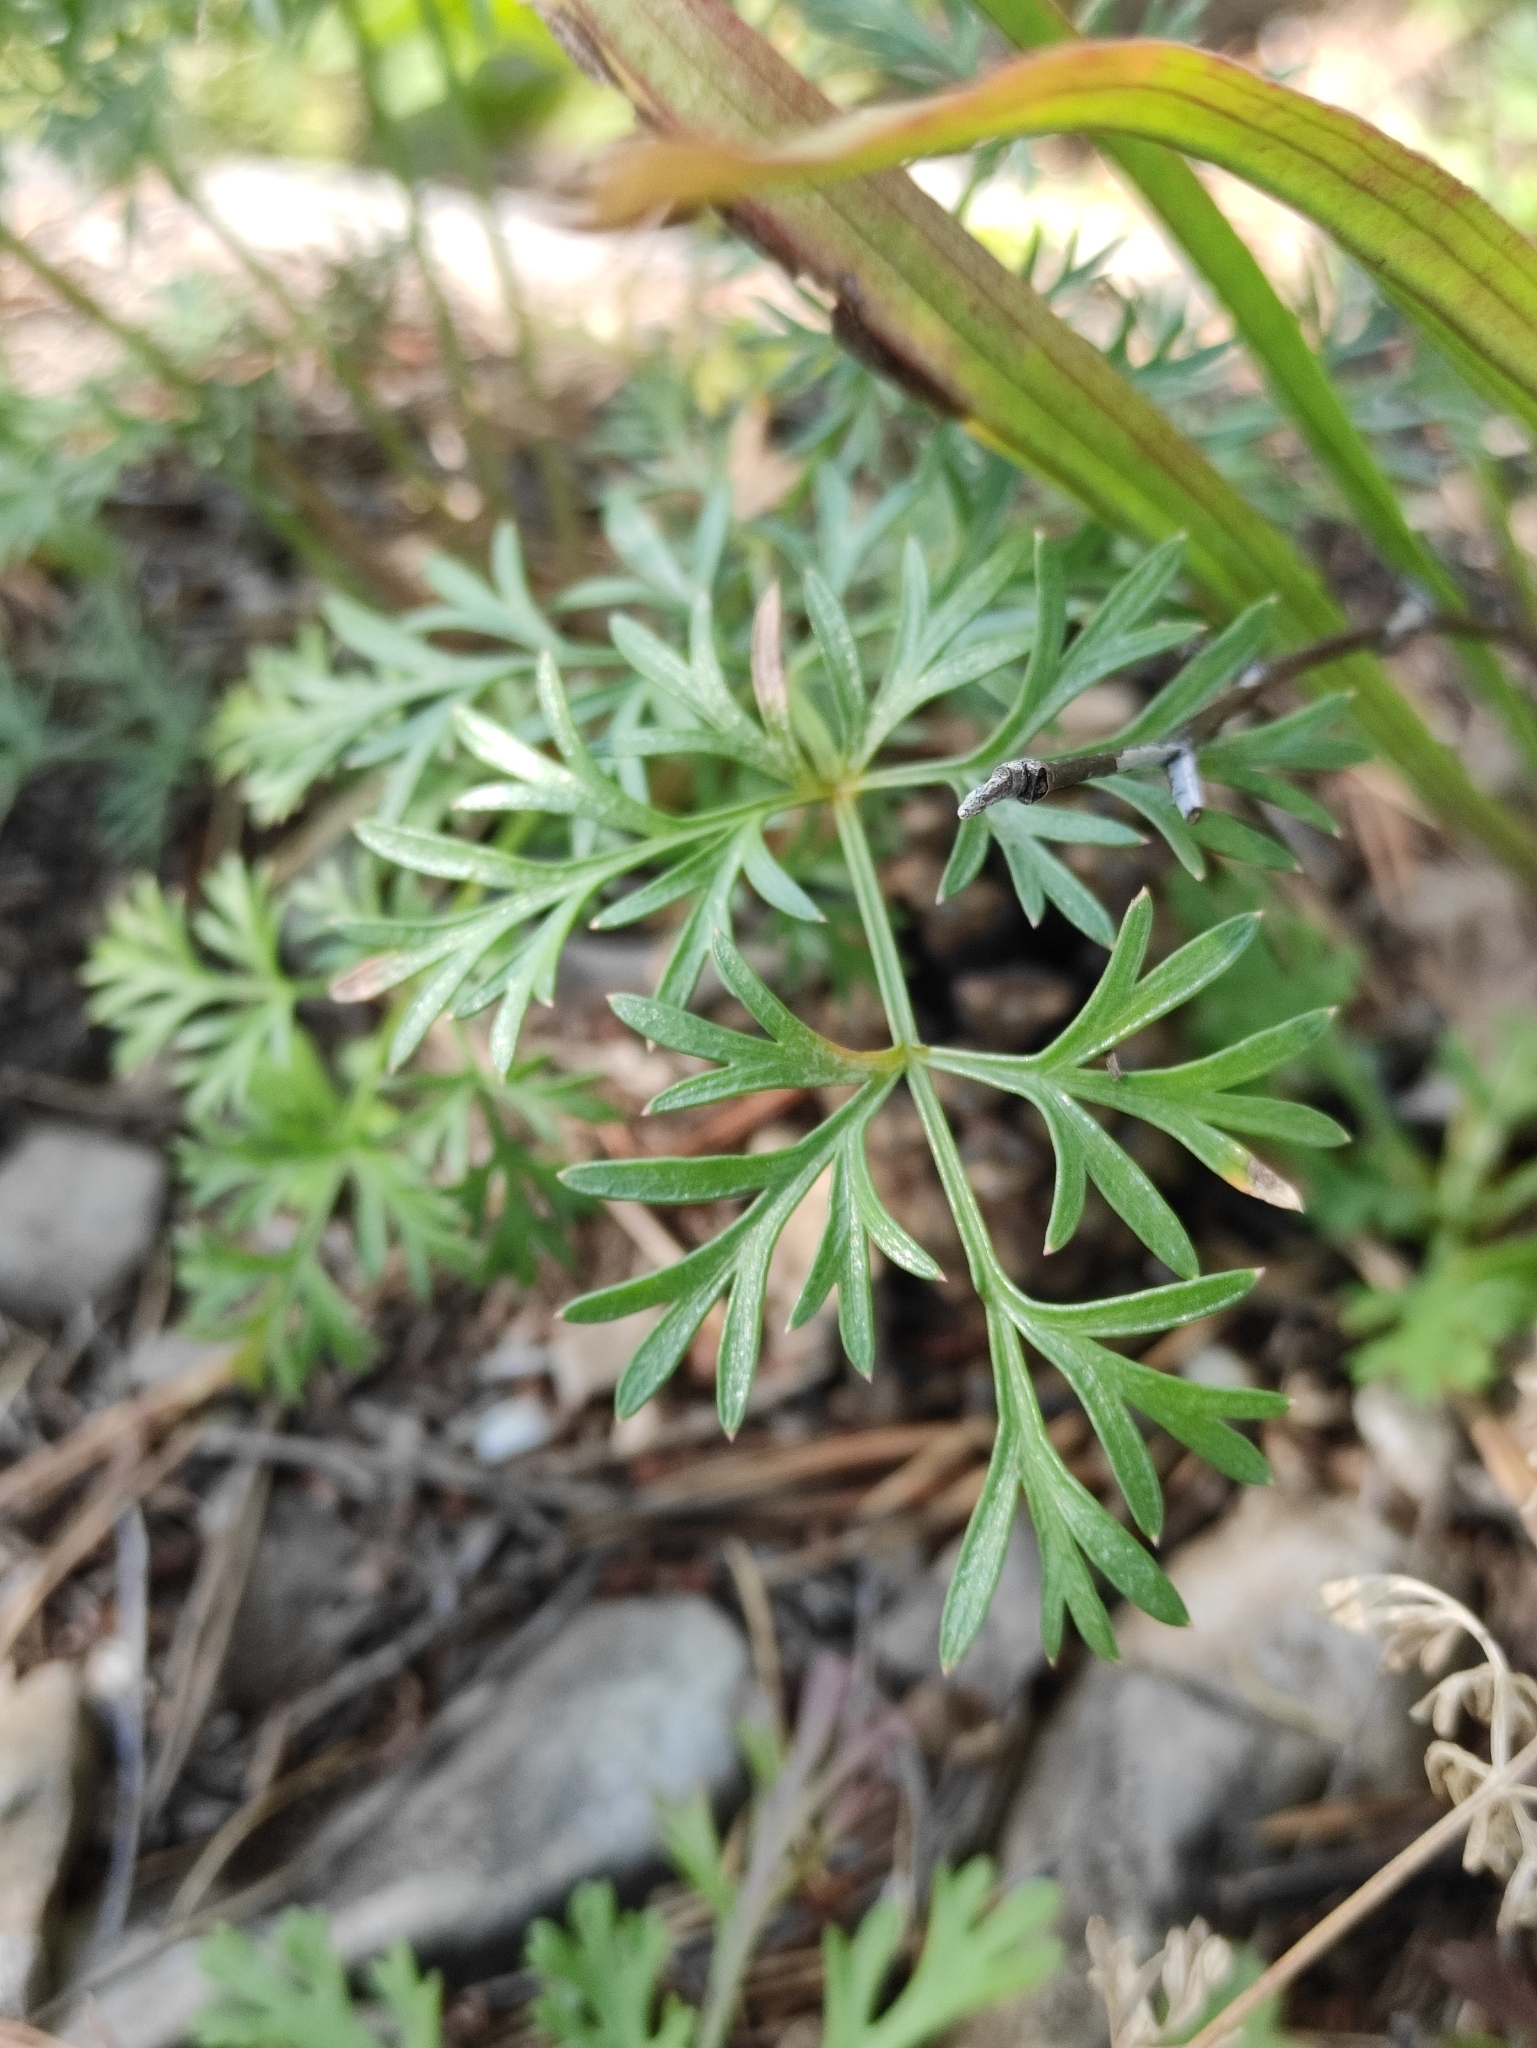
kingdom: Plantae
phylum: Tracheophyta
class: Magnoliopsida
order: Apiales
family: Apiaceae
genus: Kitagawia
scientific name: Kitagawia baicalensis
